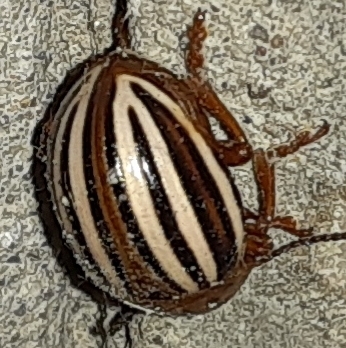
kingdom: Animalia
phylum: Arthropoda
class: Insecta
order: Coleoptera
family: Chrysomelidae
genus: Leptinotarsa
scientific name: Leptinotarsa juncta
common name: False potato beetle
